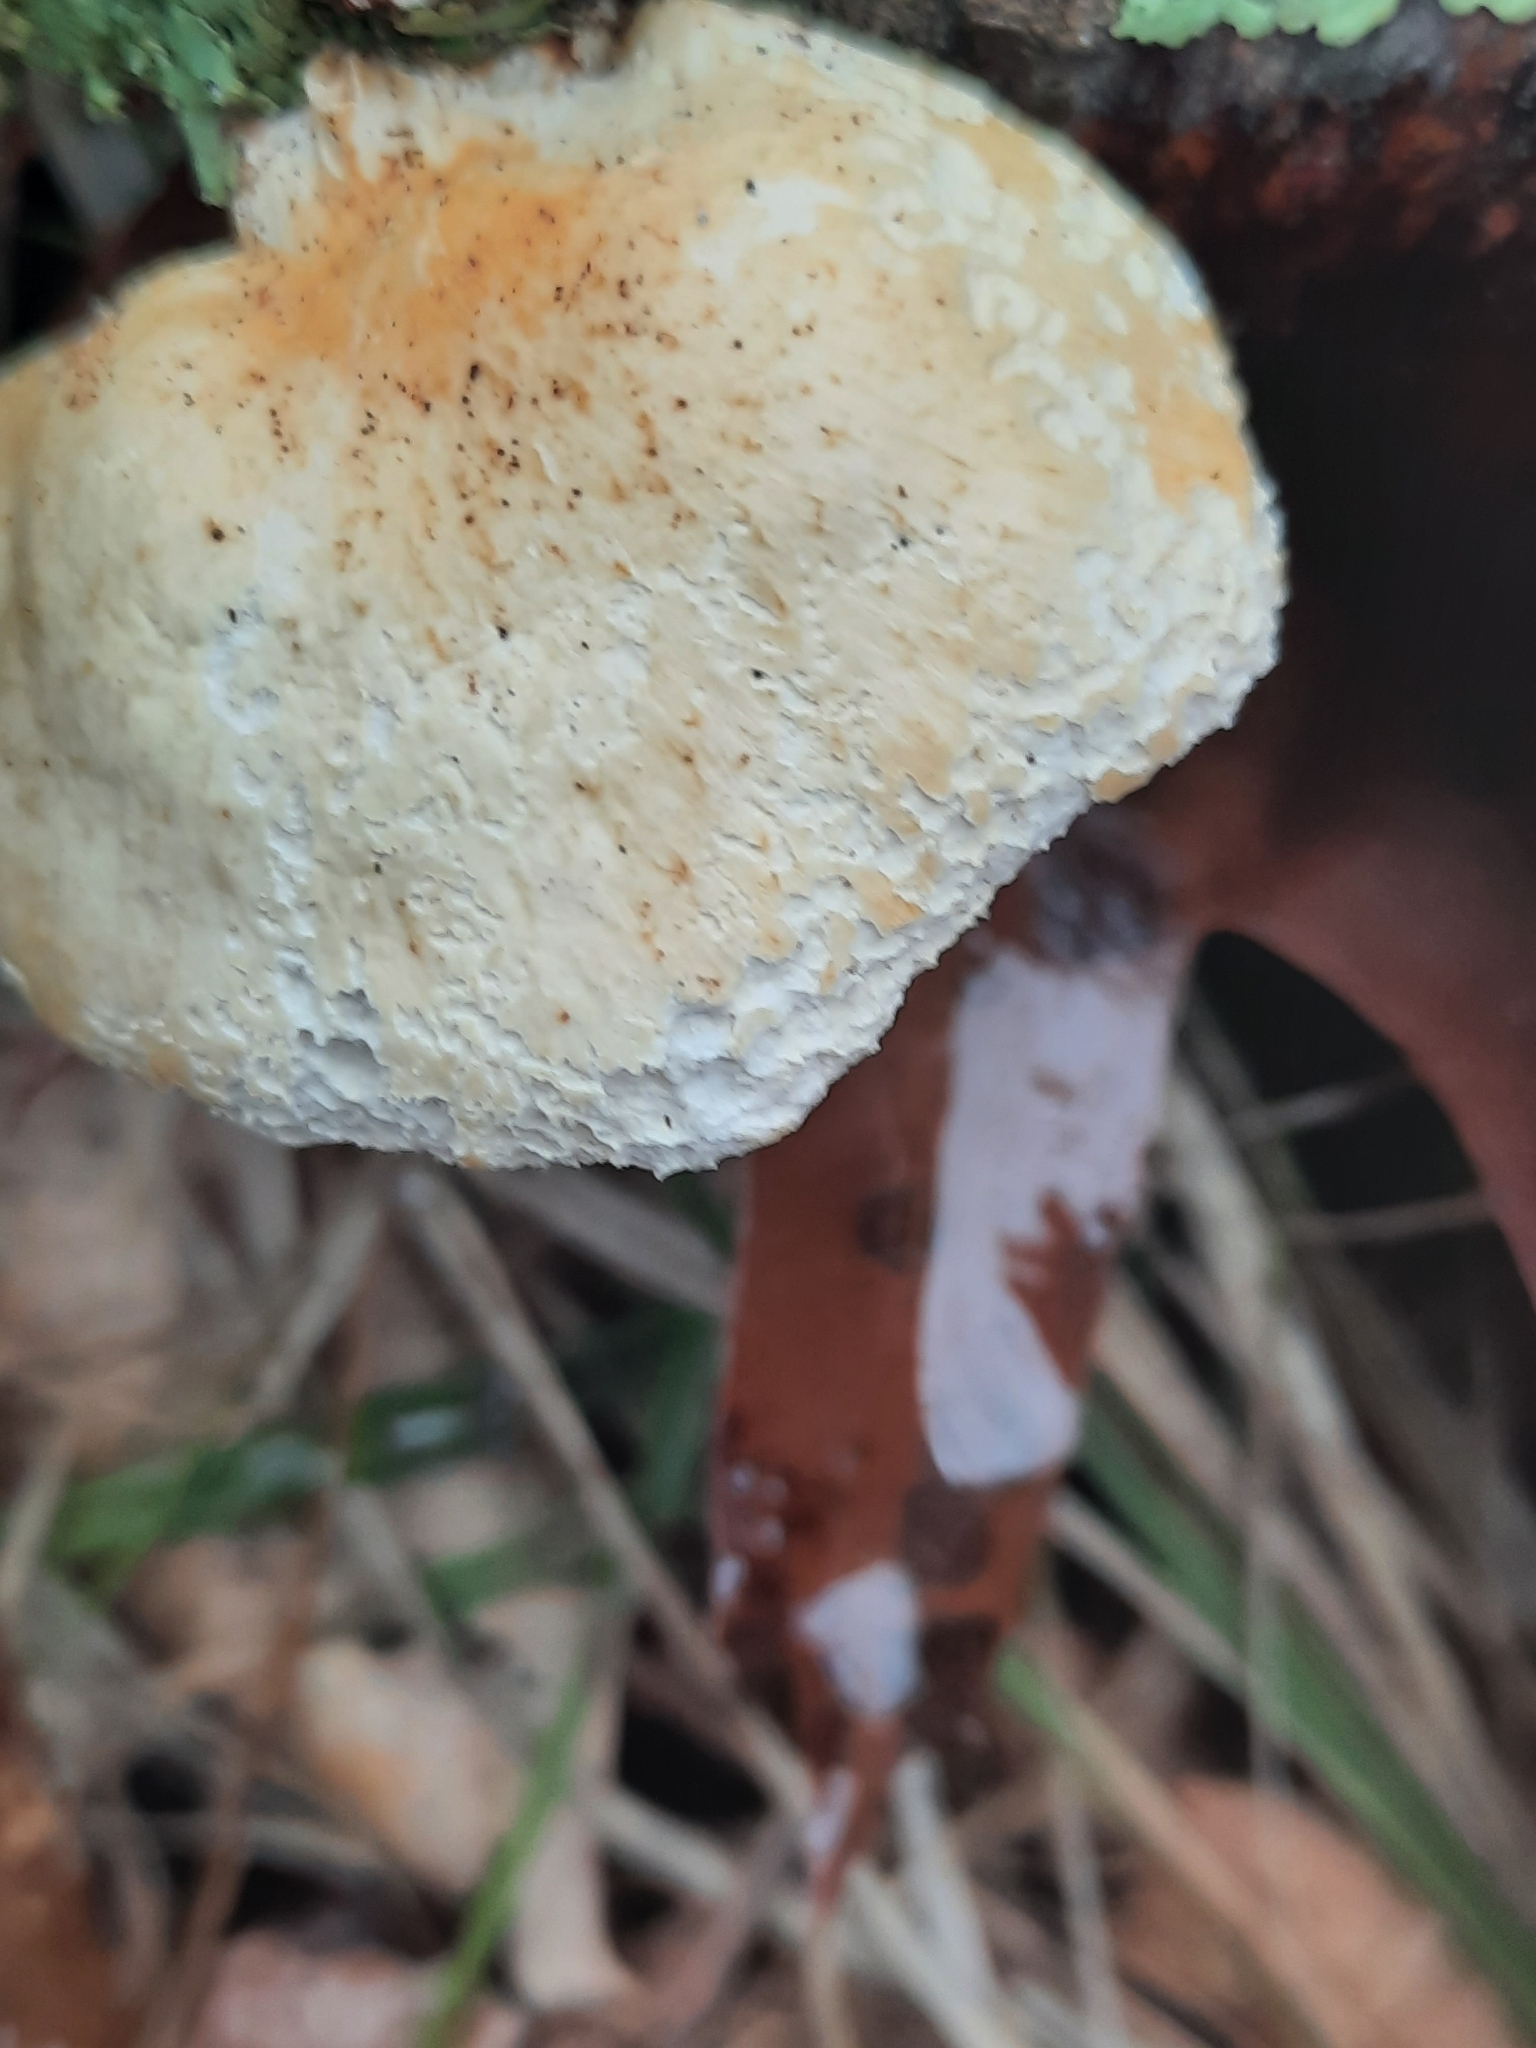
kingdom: Fungi
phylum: Basidiomycota
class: Agaricomycetes
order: Polyporales
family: Polyporaceae
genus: Neofavolus
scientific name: Neofavolus
